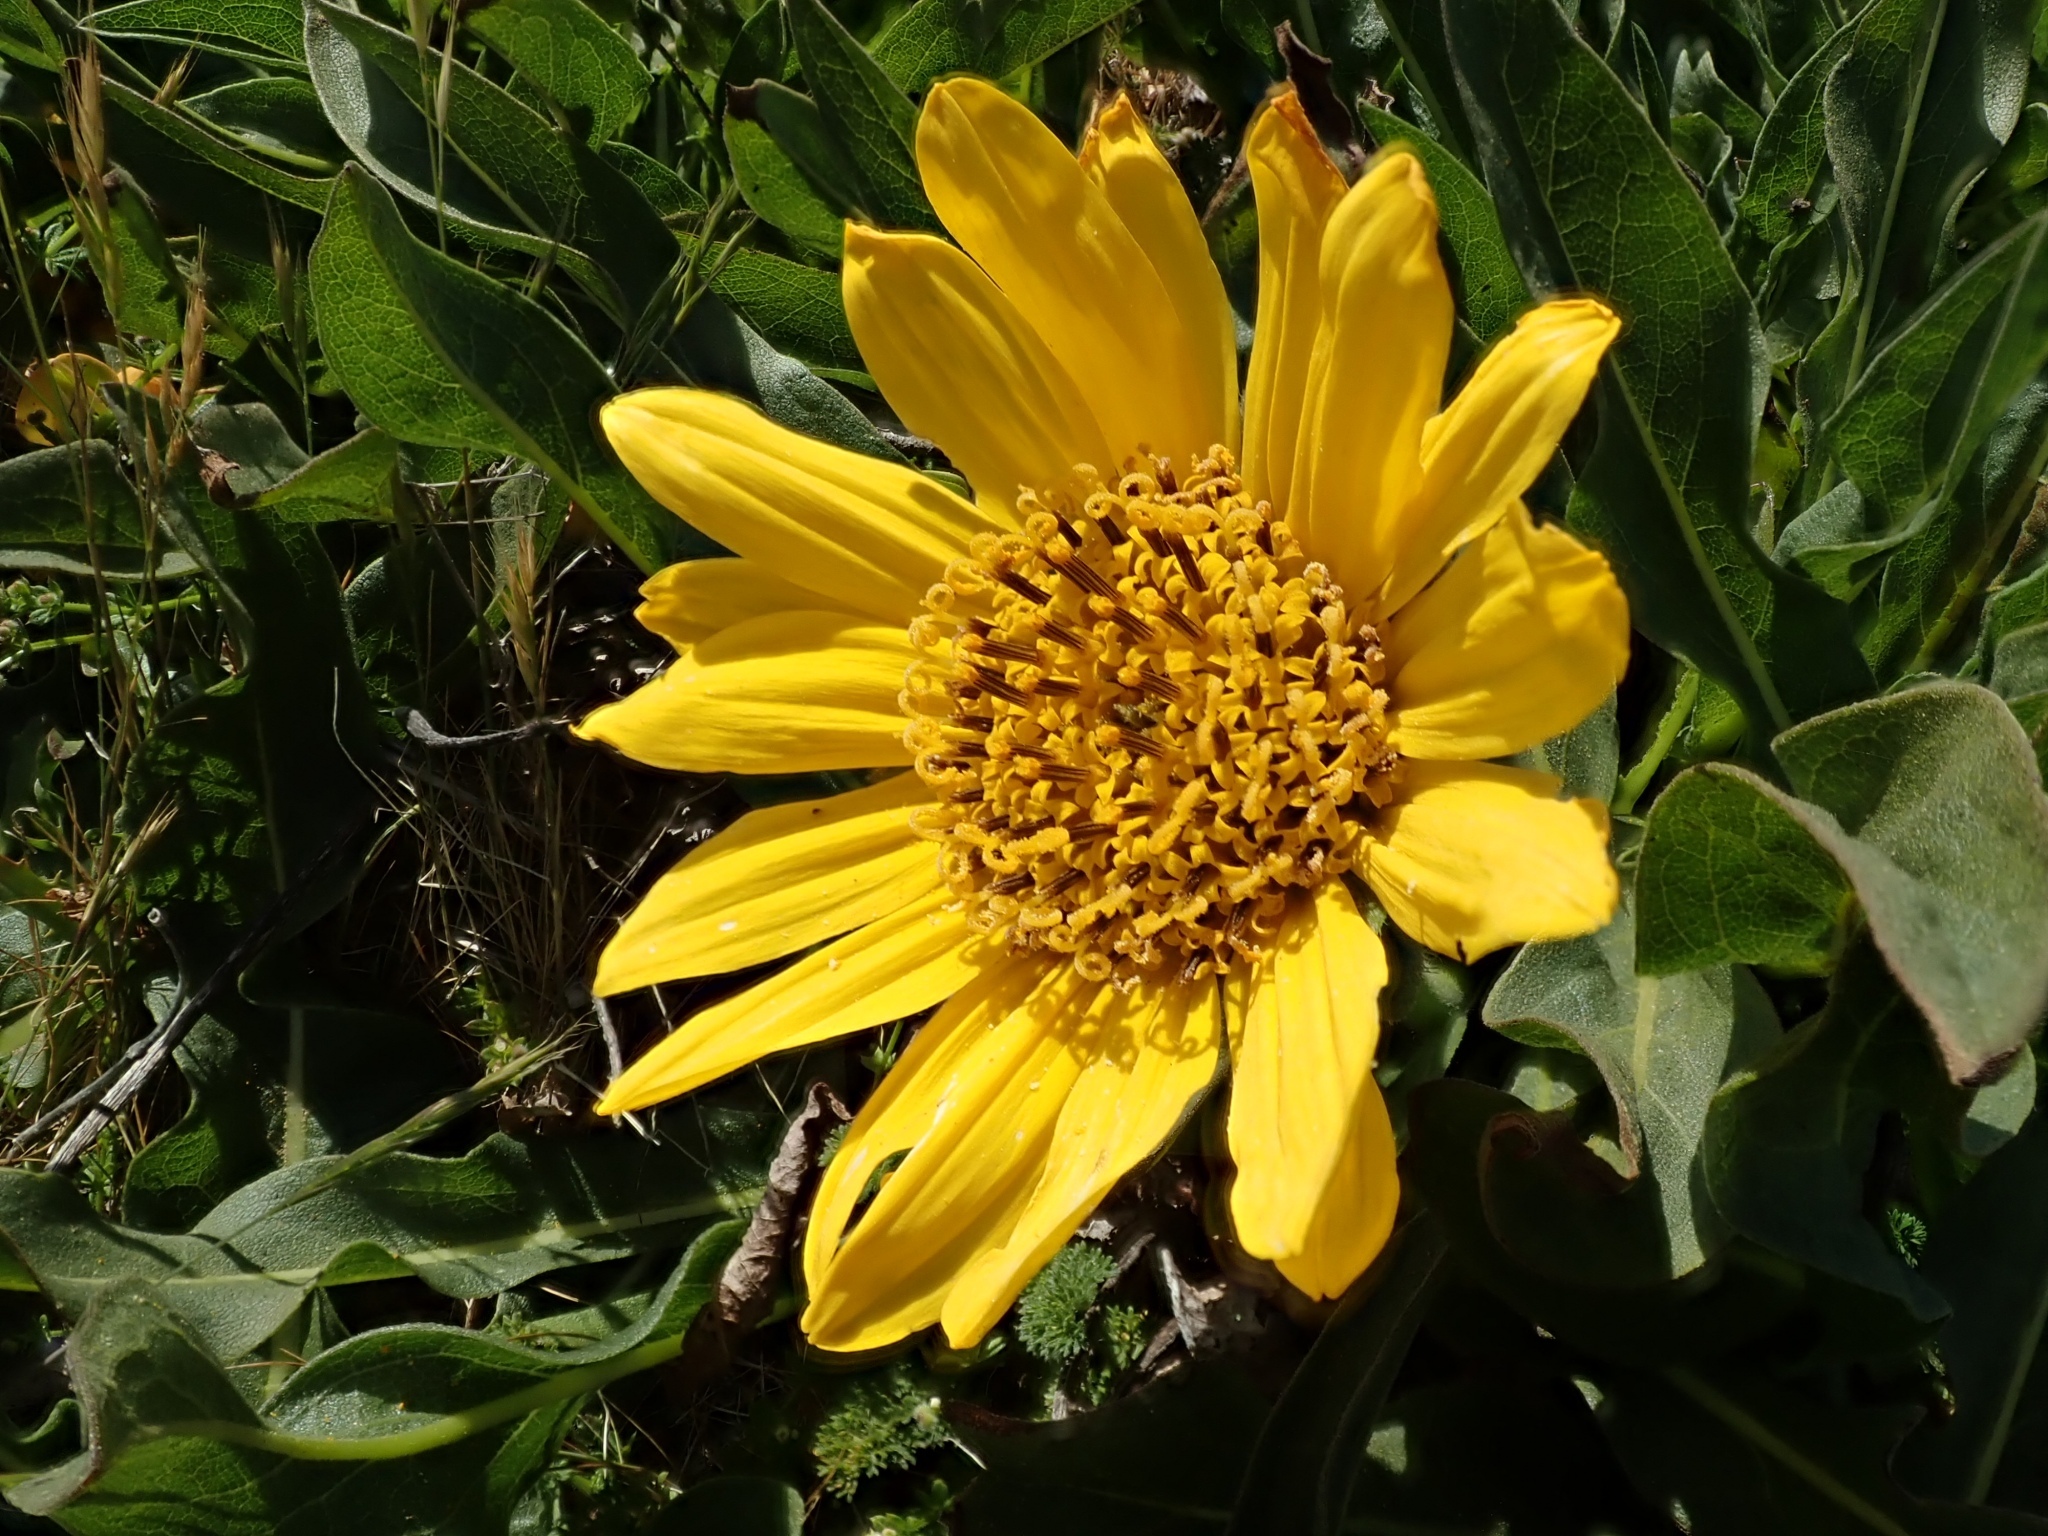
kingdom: Plantae
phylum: Tracheophyta
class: Magnoliopsida
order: Asterales
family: Asteraceae
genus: Wyethia
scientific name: Wyethia angustifolia
